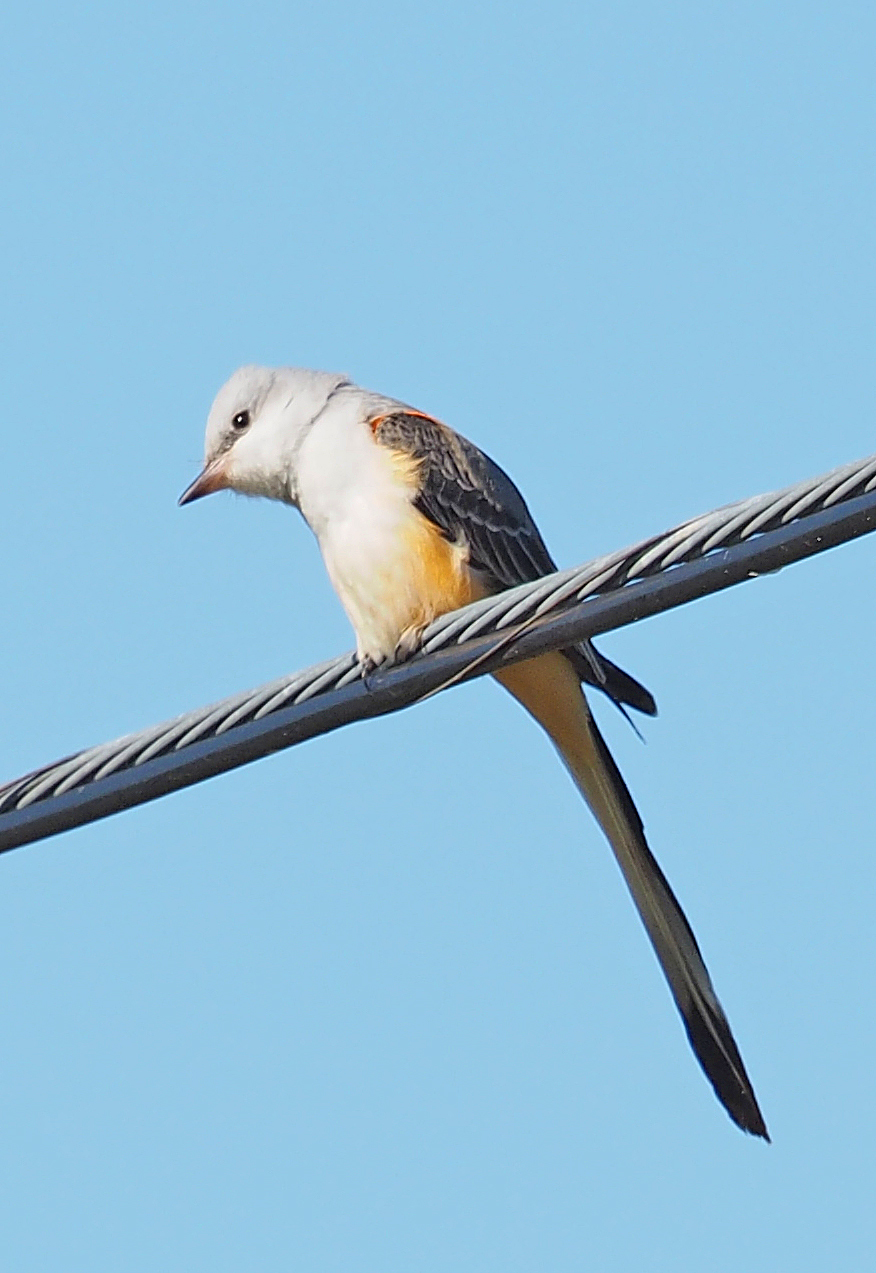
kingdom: Animalia
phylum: Chordata
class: Aves
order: Passeriformes
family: Tyrannidae
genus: Tyrannus
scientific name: Tyrannus forficatus
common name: Scissor-tailed flycatcher
